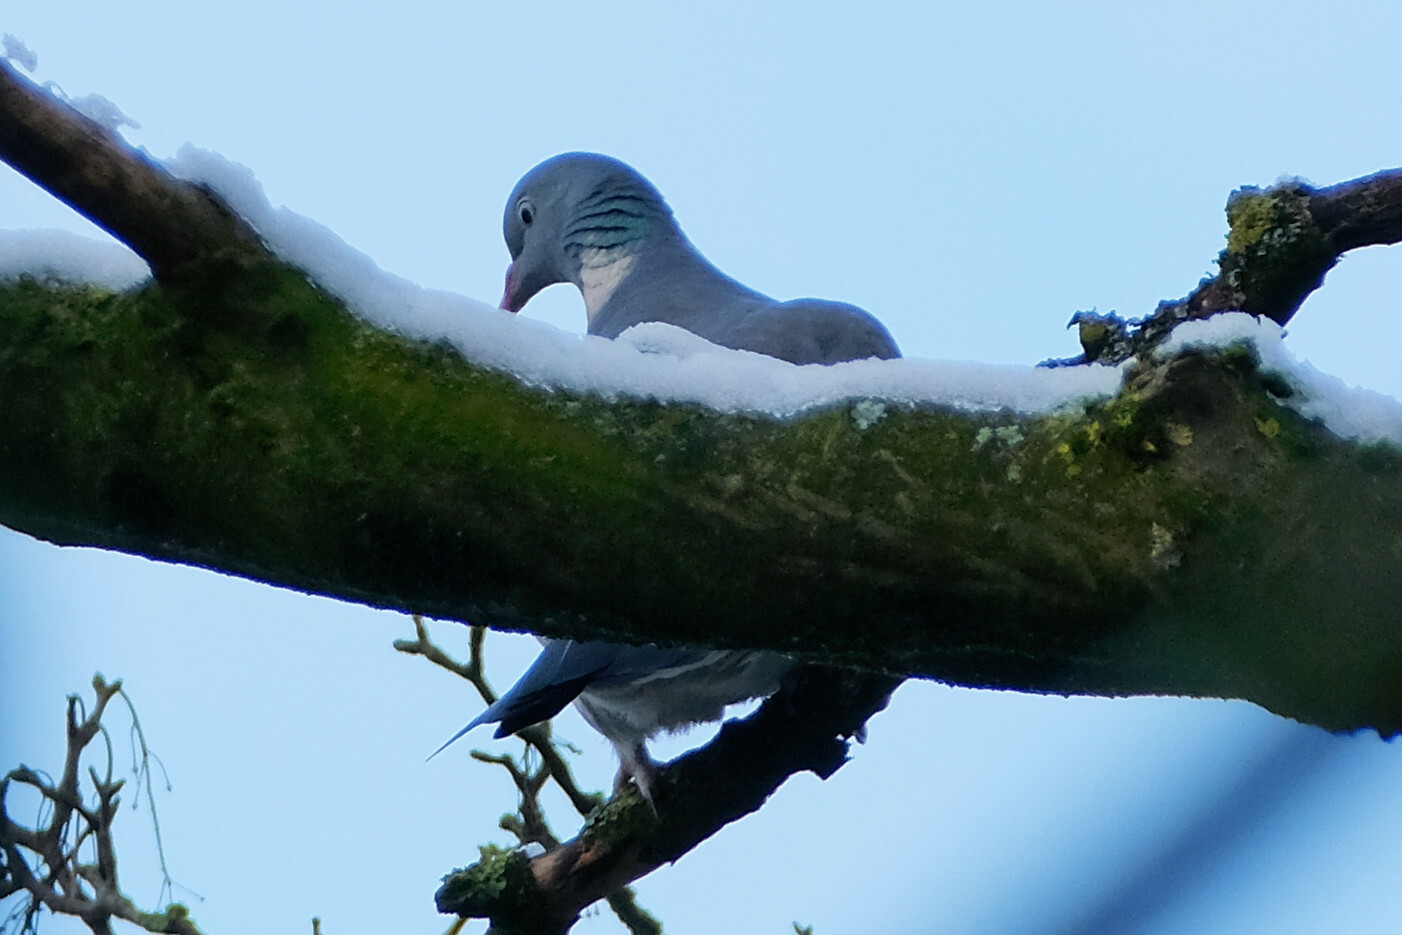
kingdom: Animalia
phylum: Chordata
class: Aves
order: Columbiformes
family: Columbidae
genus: Columba
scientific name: Columba palumbus
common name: Common wood pigeon
